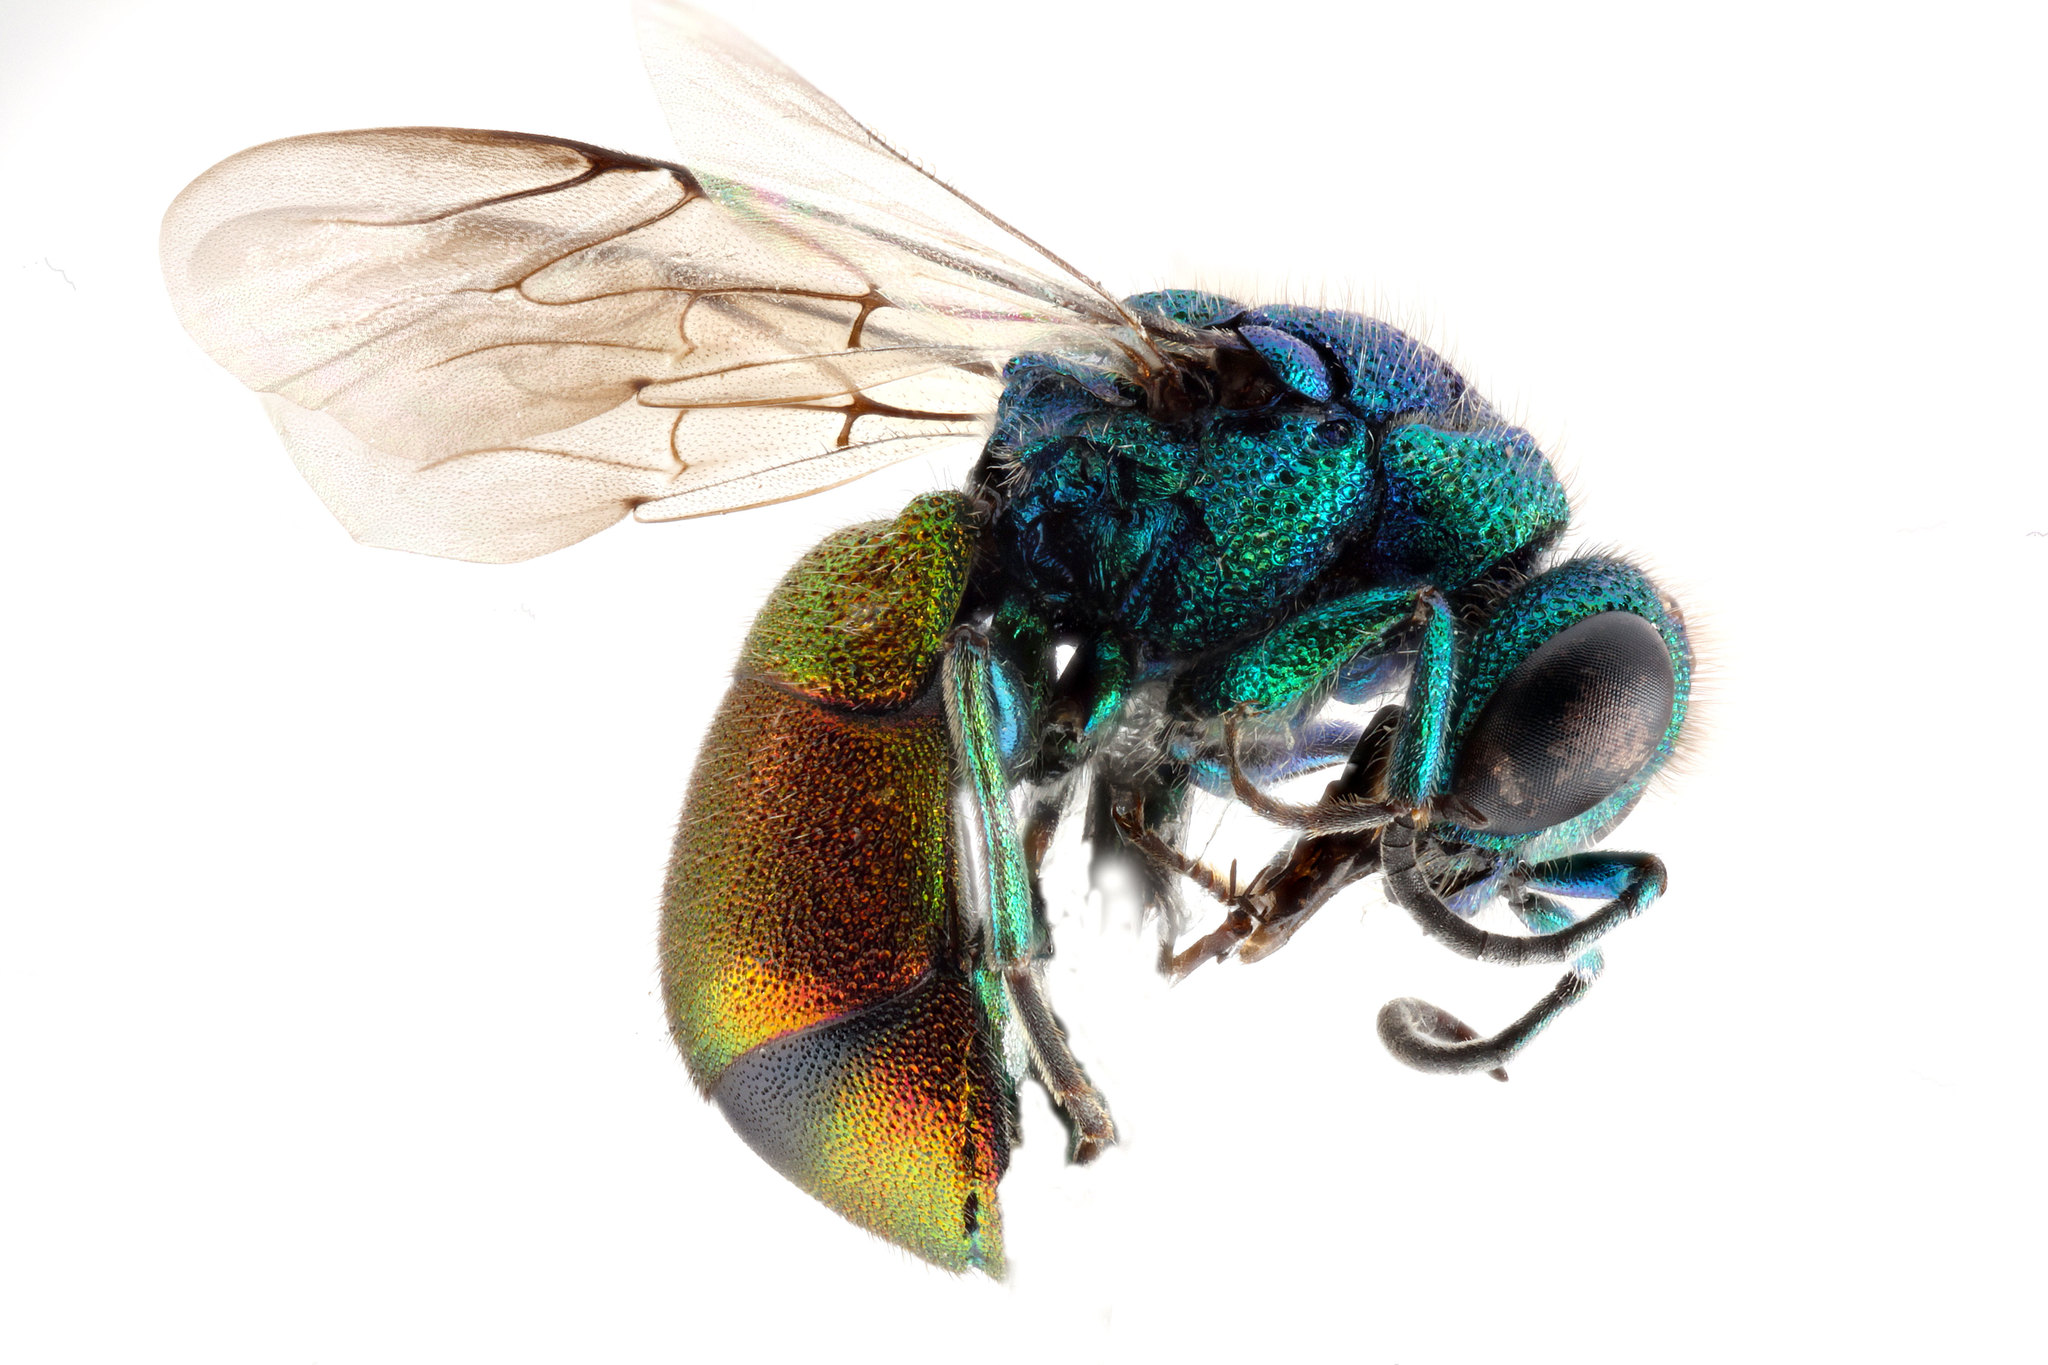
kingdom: Animalia
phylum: Arthropoda
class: Insecta
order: Hymenoptera
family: Chrysididae
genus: Pseudospinolia
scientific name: Pseudospinolia neglecta
